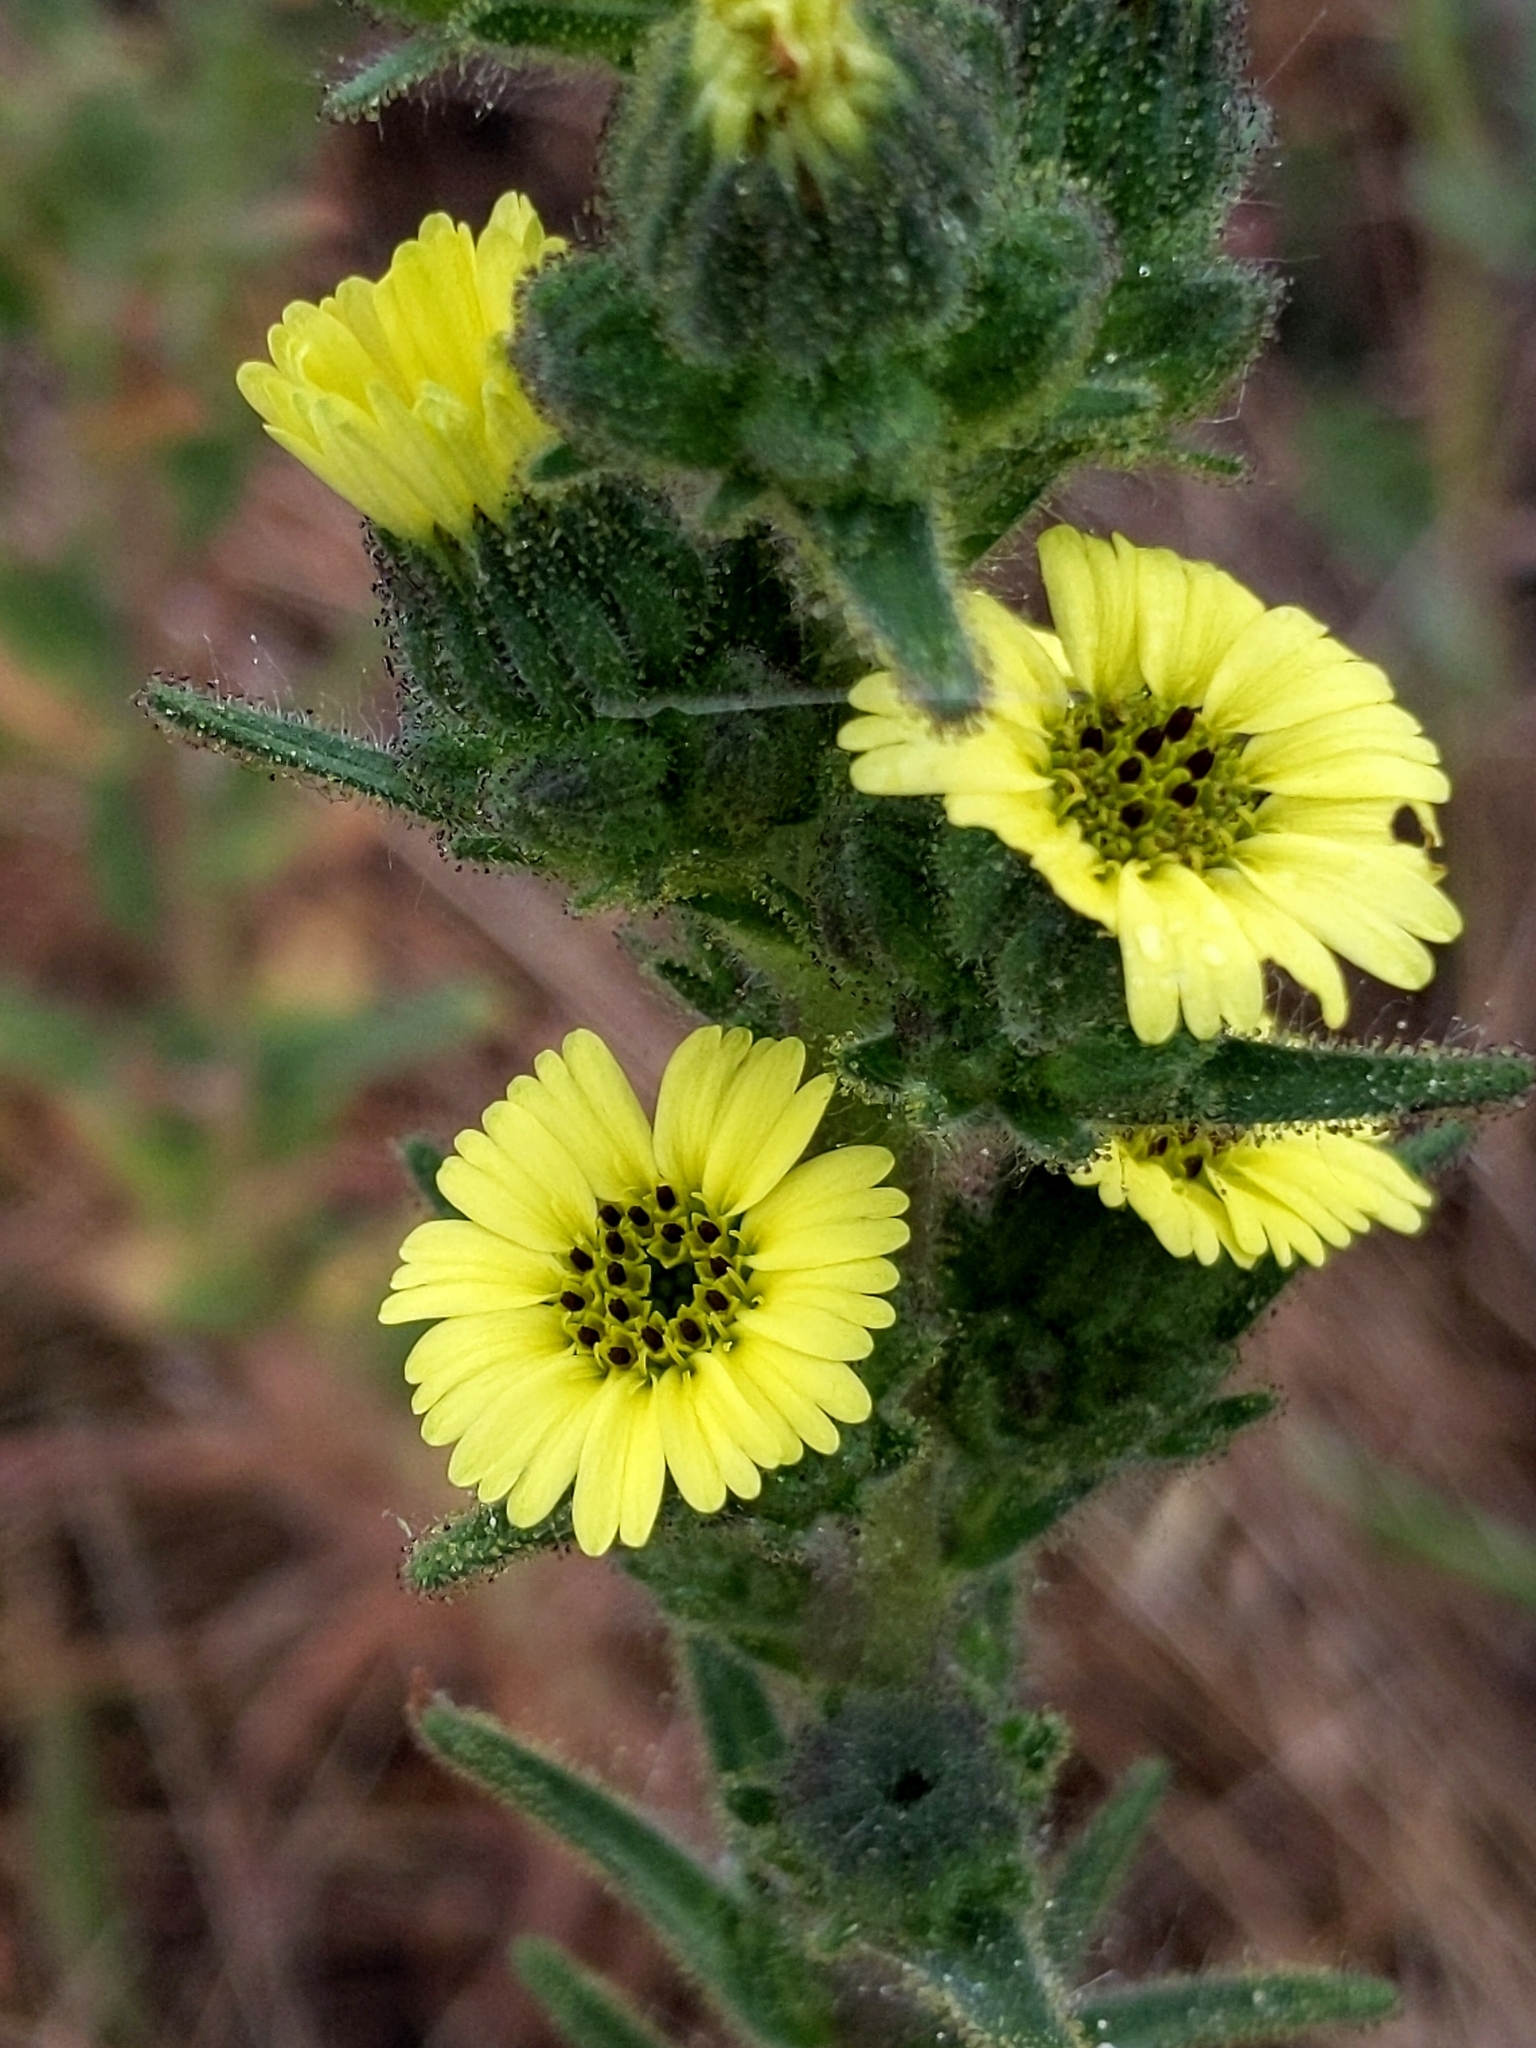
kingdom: Plantae
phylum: Tracheophyta
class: Magnoliopsida
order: Asterales
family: Asteraceae
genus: Madia
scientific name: Madia sativa
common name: Coast tarweed
